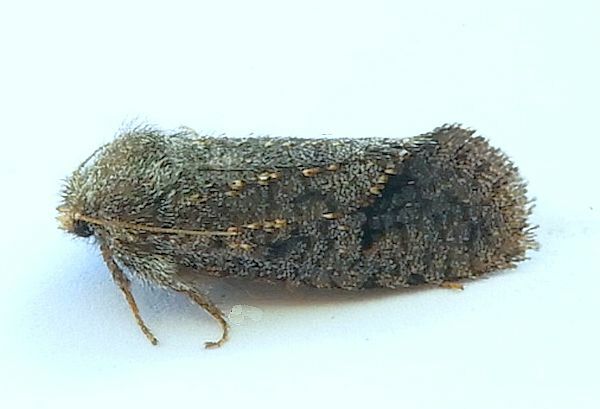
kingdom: Animalia
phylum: Arthropoda
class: Insecta
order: Lepidoptera
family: Tineidae
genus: Acrolophus
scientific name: Acrolophus filicornis
